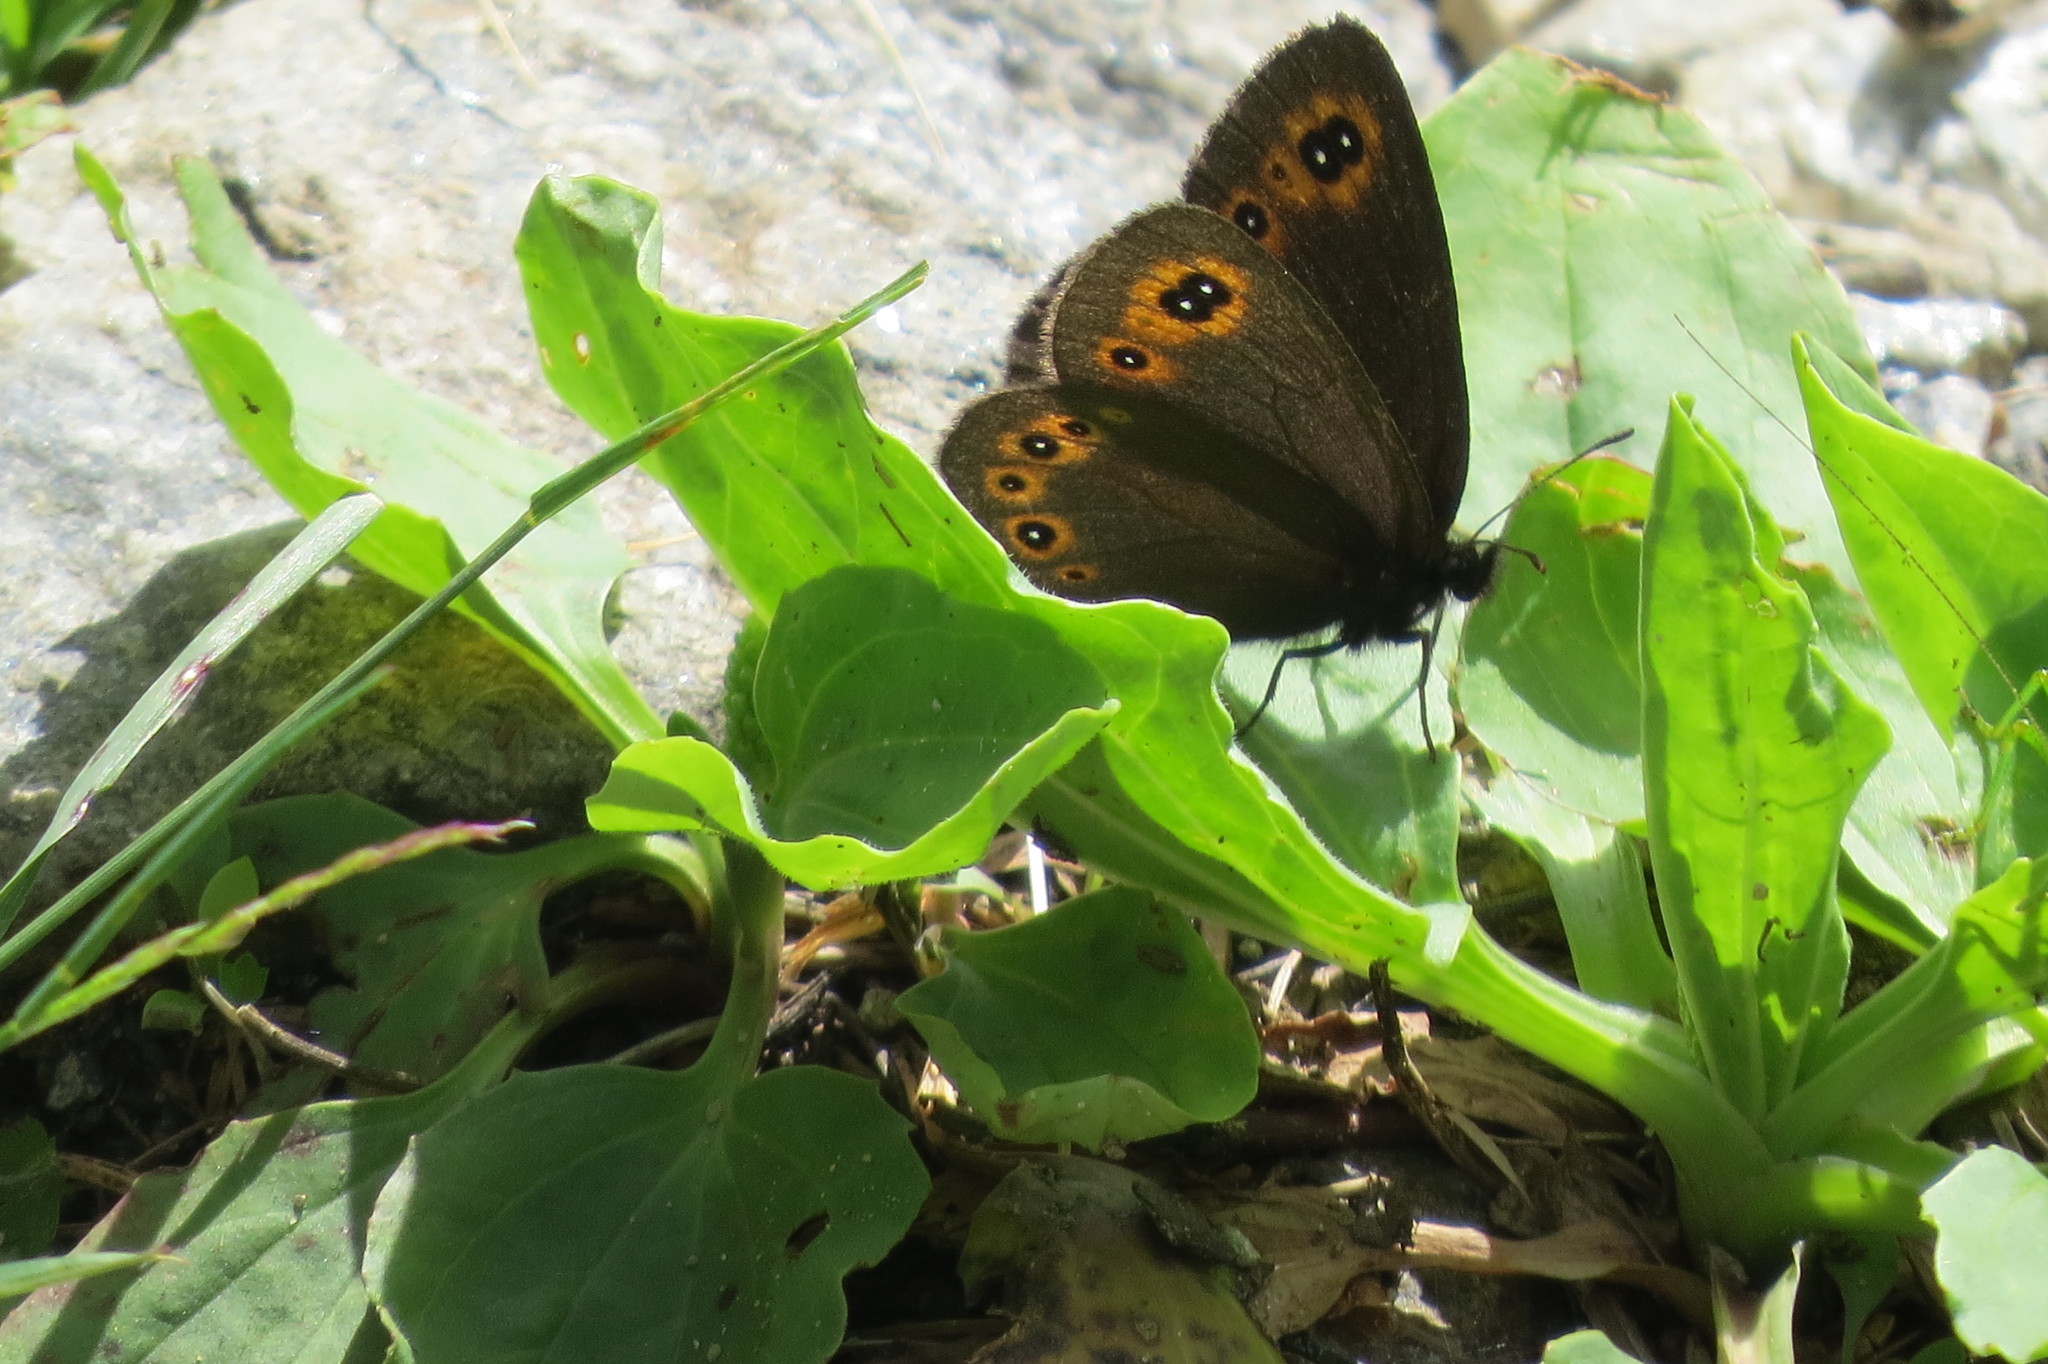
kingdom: Animalia
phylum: Arthropoda
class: Insecta
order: Lepidoptera
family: Nymphalidae
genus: Erebia
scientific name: Erebia medusa
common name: Woodland ringlet
